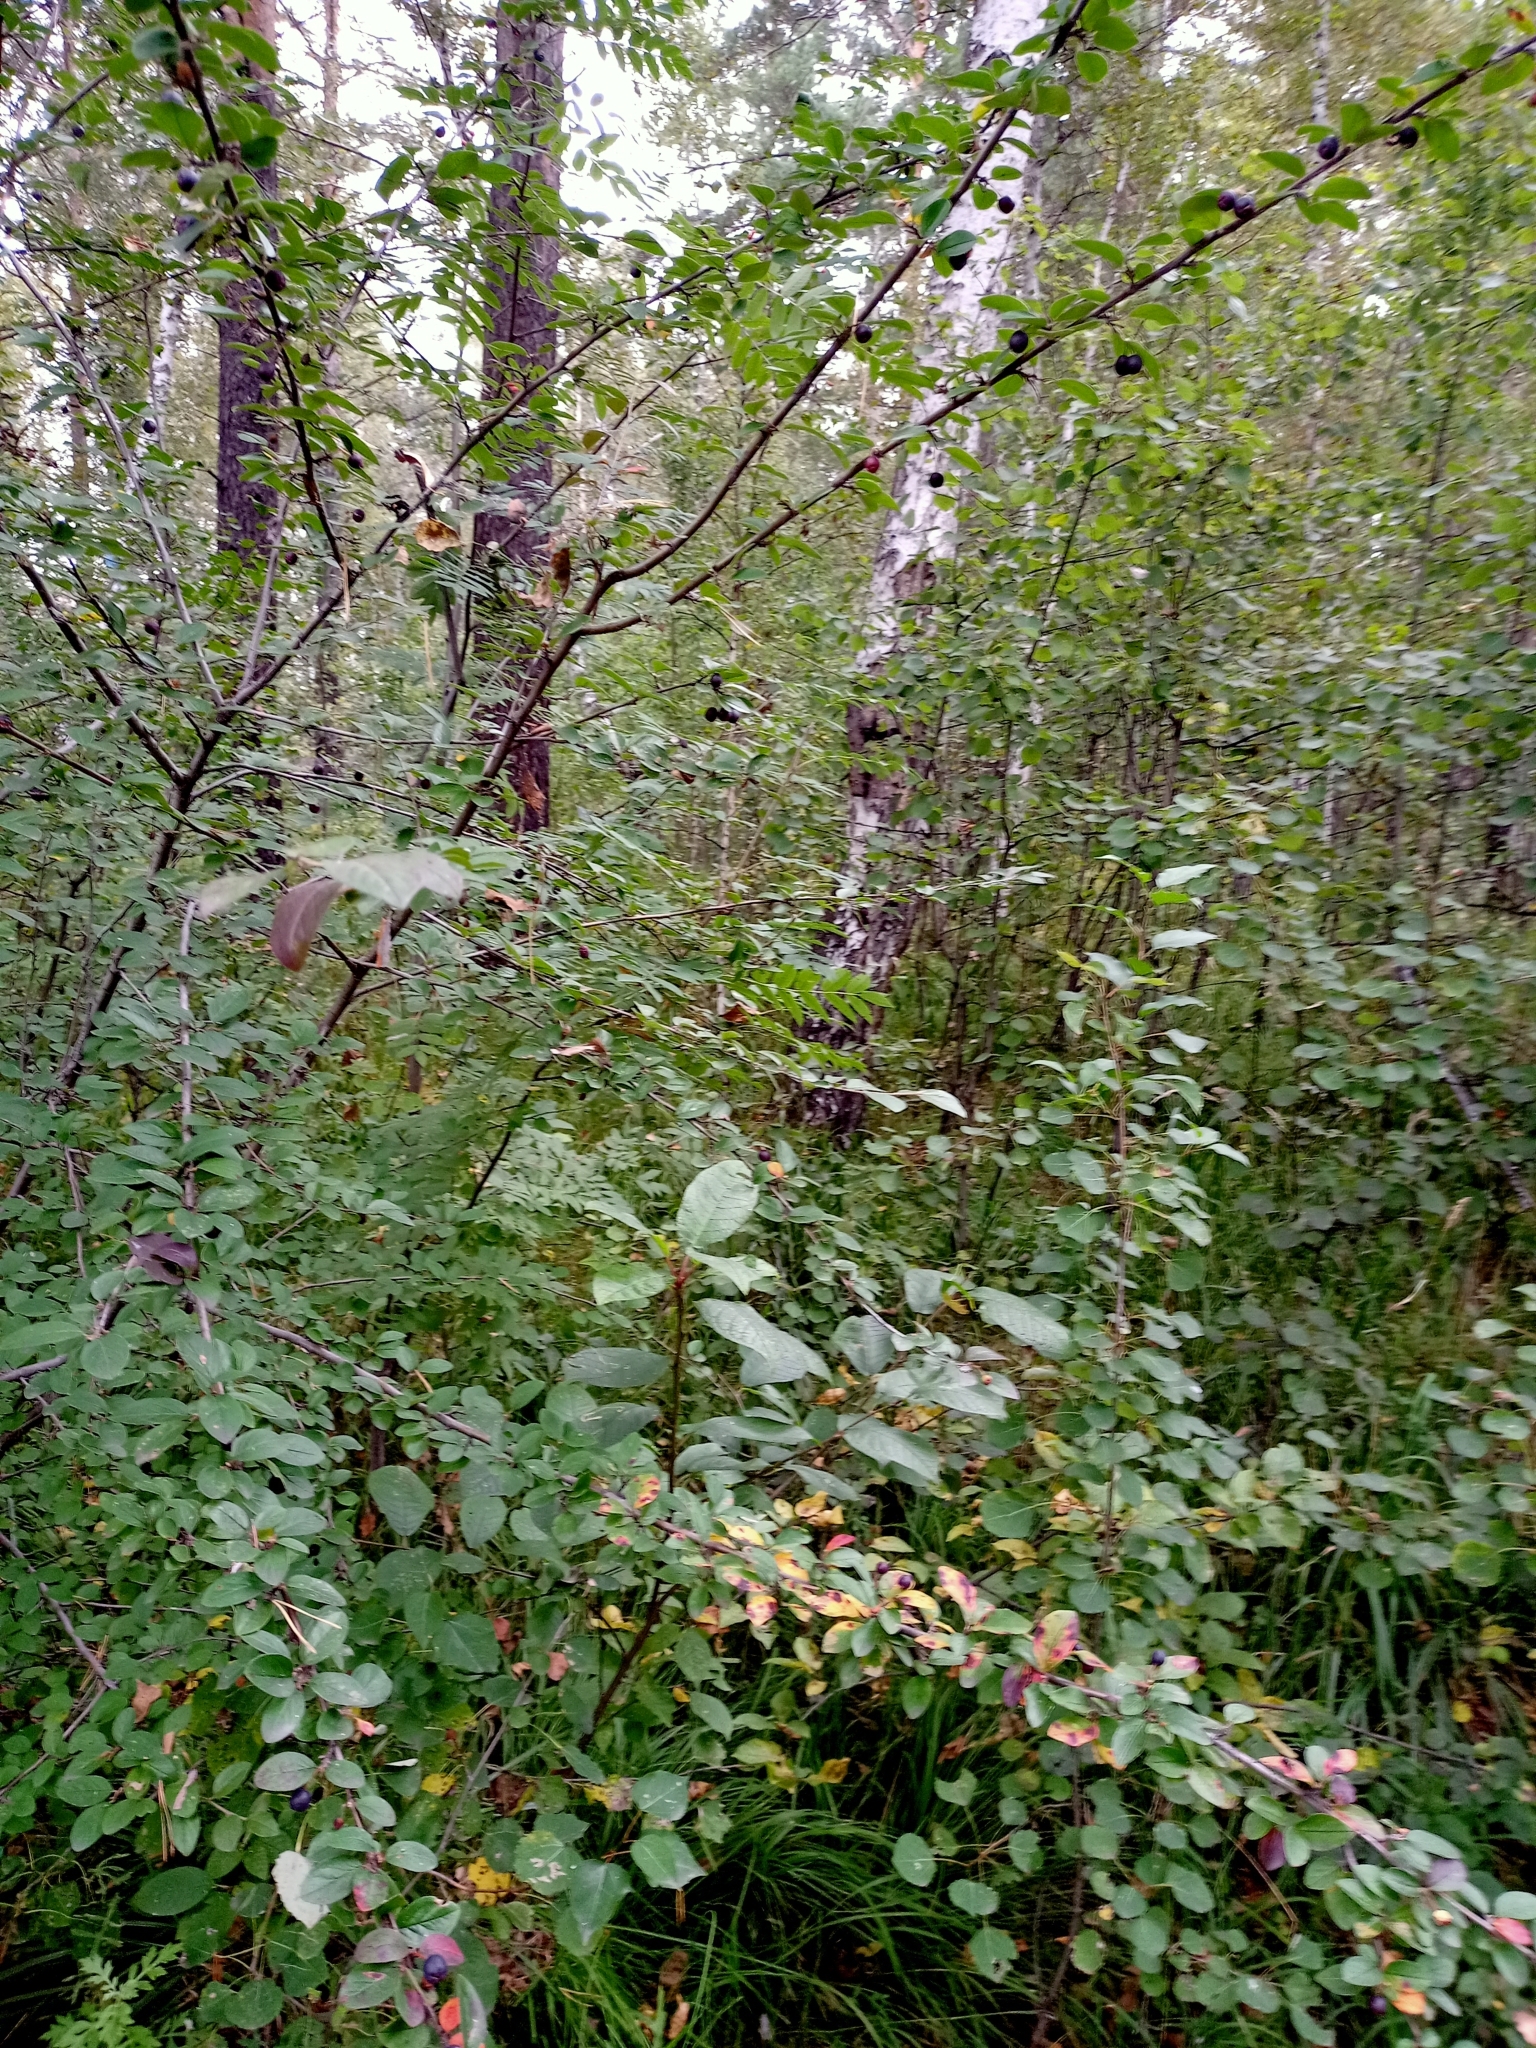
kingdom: Plantae
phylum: Tracheophyta
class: Magnoliopsida
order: Rosales
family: Rosaceae
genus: Cotoneaster
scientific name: Cotoneaster melanocarpus
